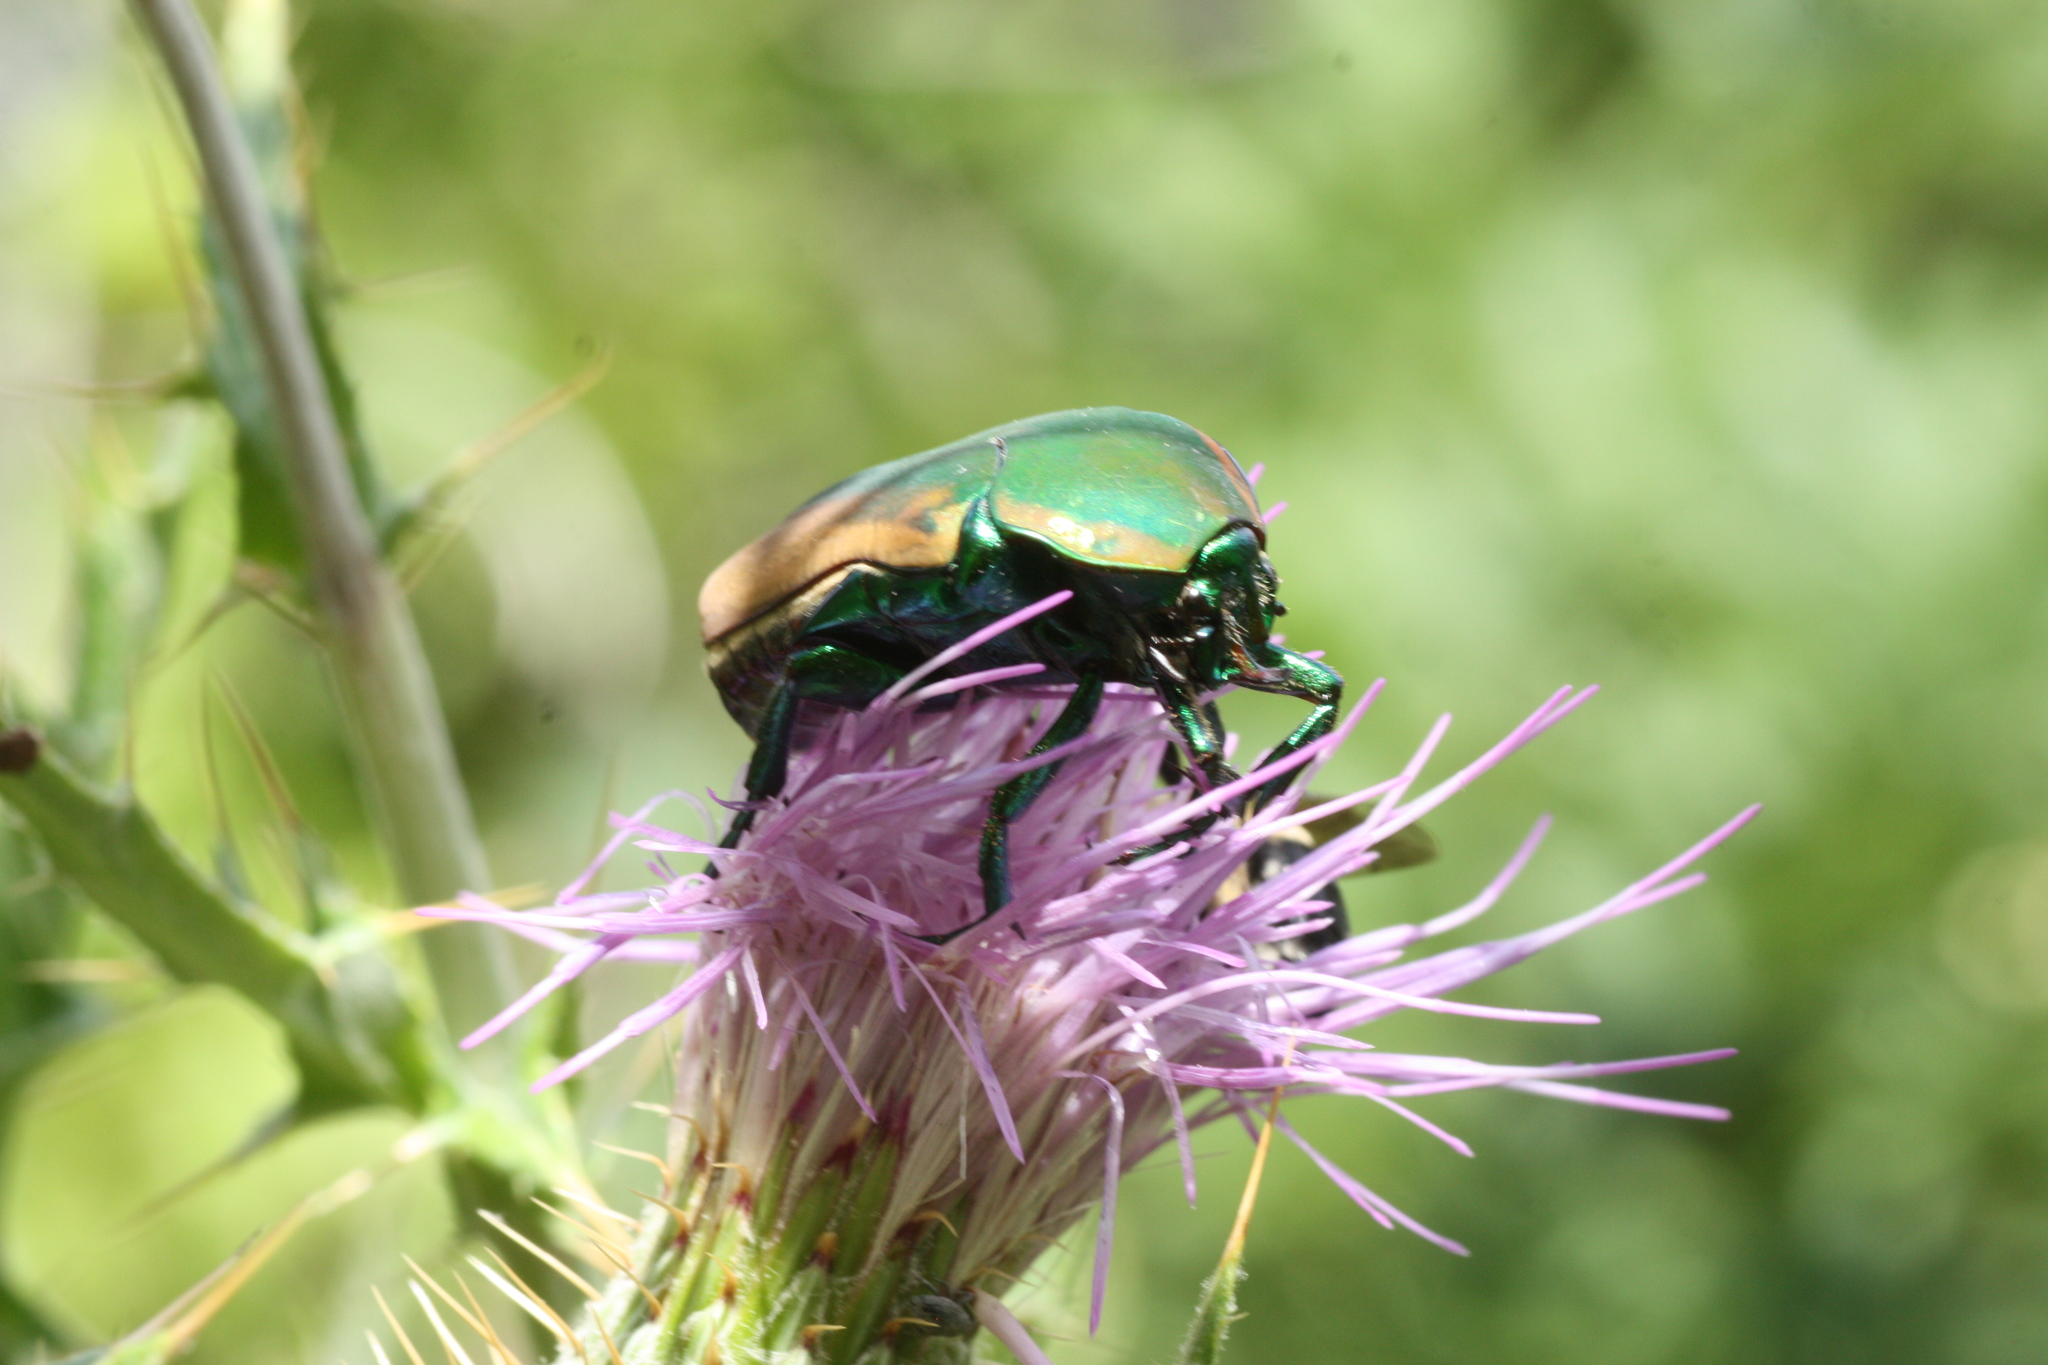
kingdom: Animalia
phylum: Arthropoda
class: Insecta
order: Coleoptera
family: Scarabaeidae
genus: Cotinis
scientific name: Cotinis mutabilis
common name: Figeater beetle
